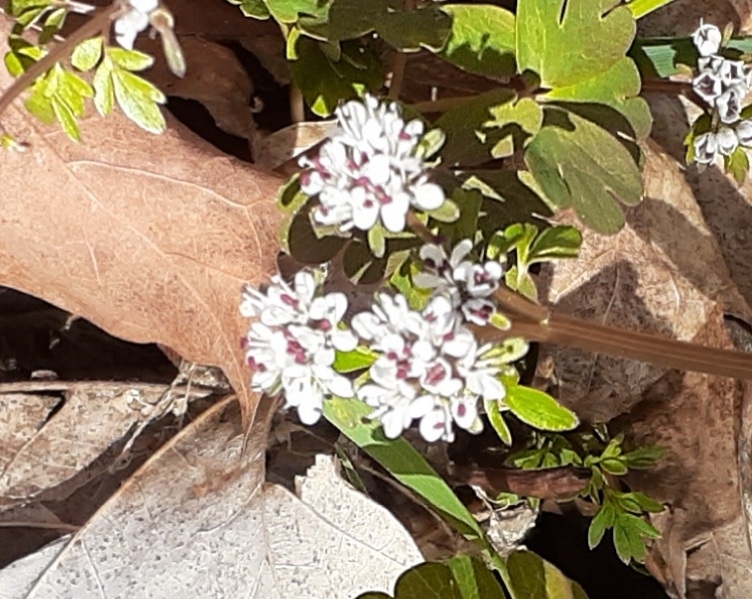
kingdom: Plantae
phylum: Tracheophyta
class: Magnoliopsida
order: Apiales
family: Apiaceae
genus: Erigenia
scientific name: Erigenia bulbosa
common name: Pepper-and-salt
